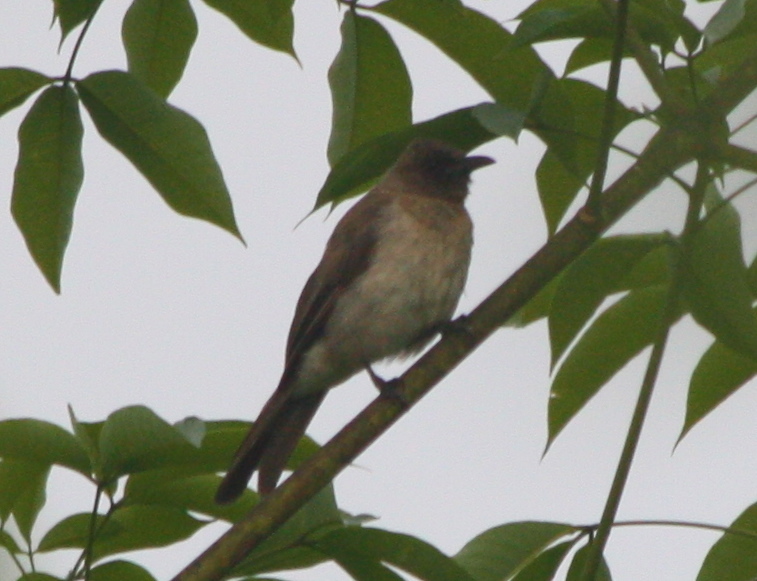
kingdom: Animalia
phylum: Chordata
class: Aves
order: Passeriformes
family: Pycnonotidae
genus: Pycnonotus
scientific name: Pycnonotus barbatus
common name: Common bulbul
